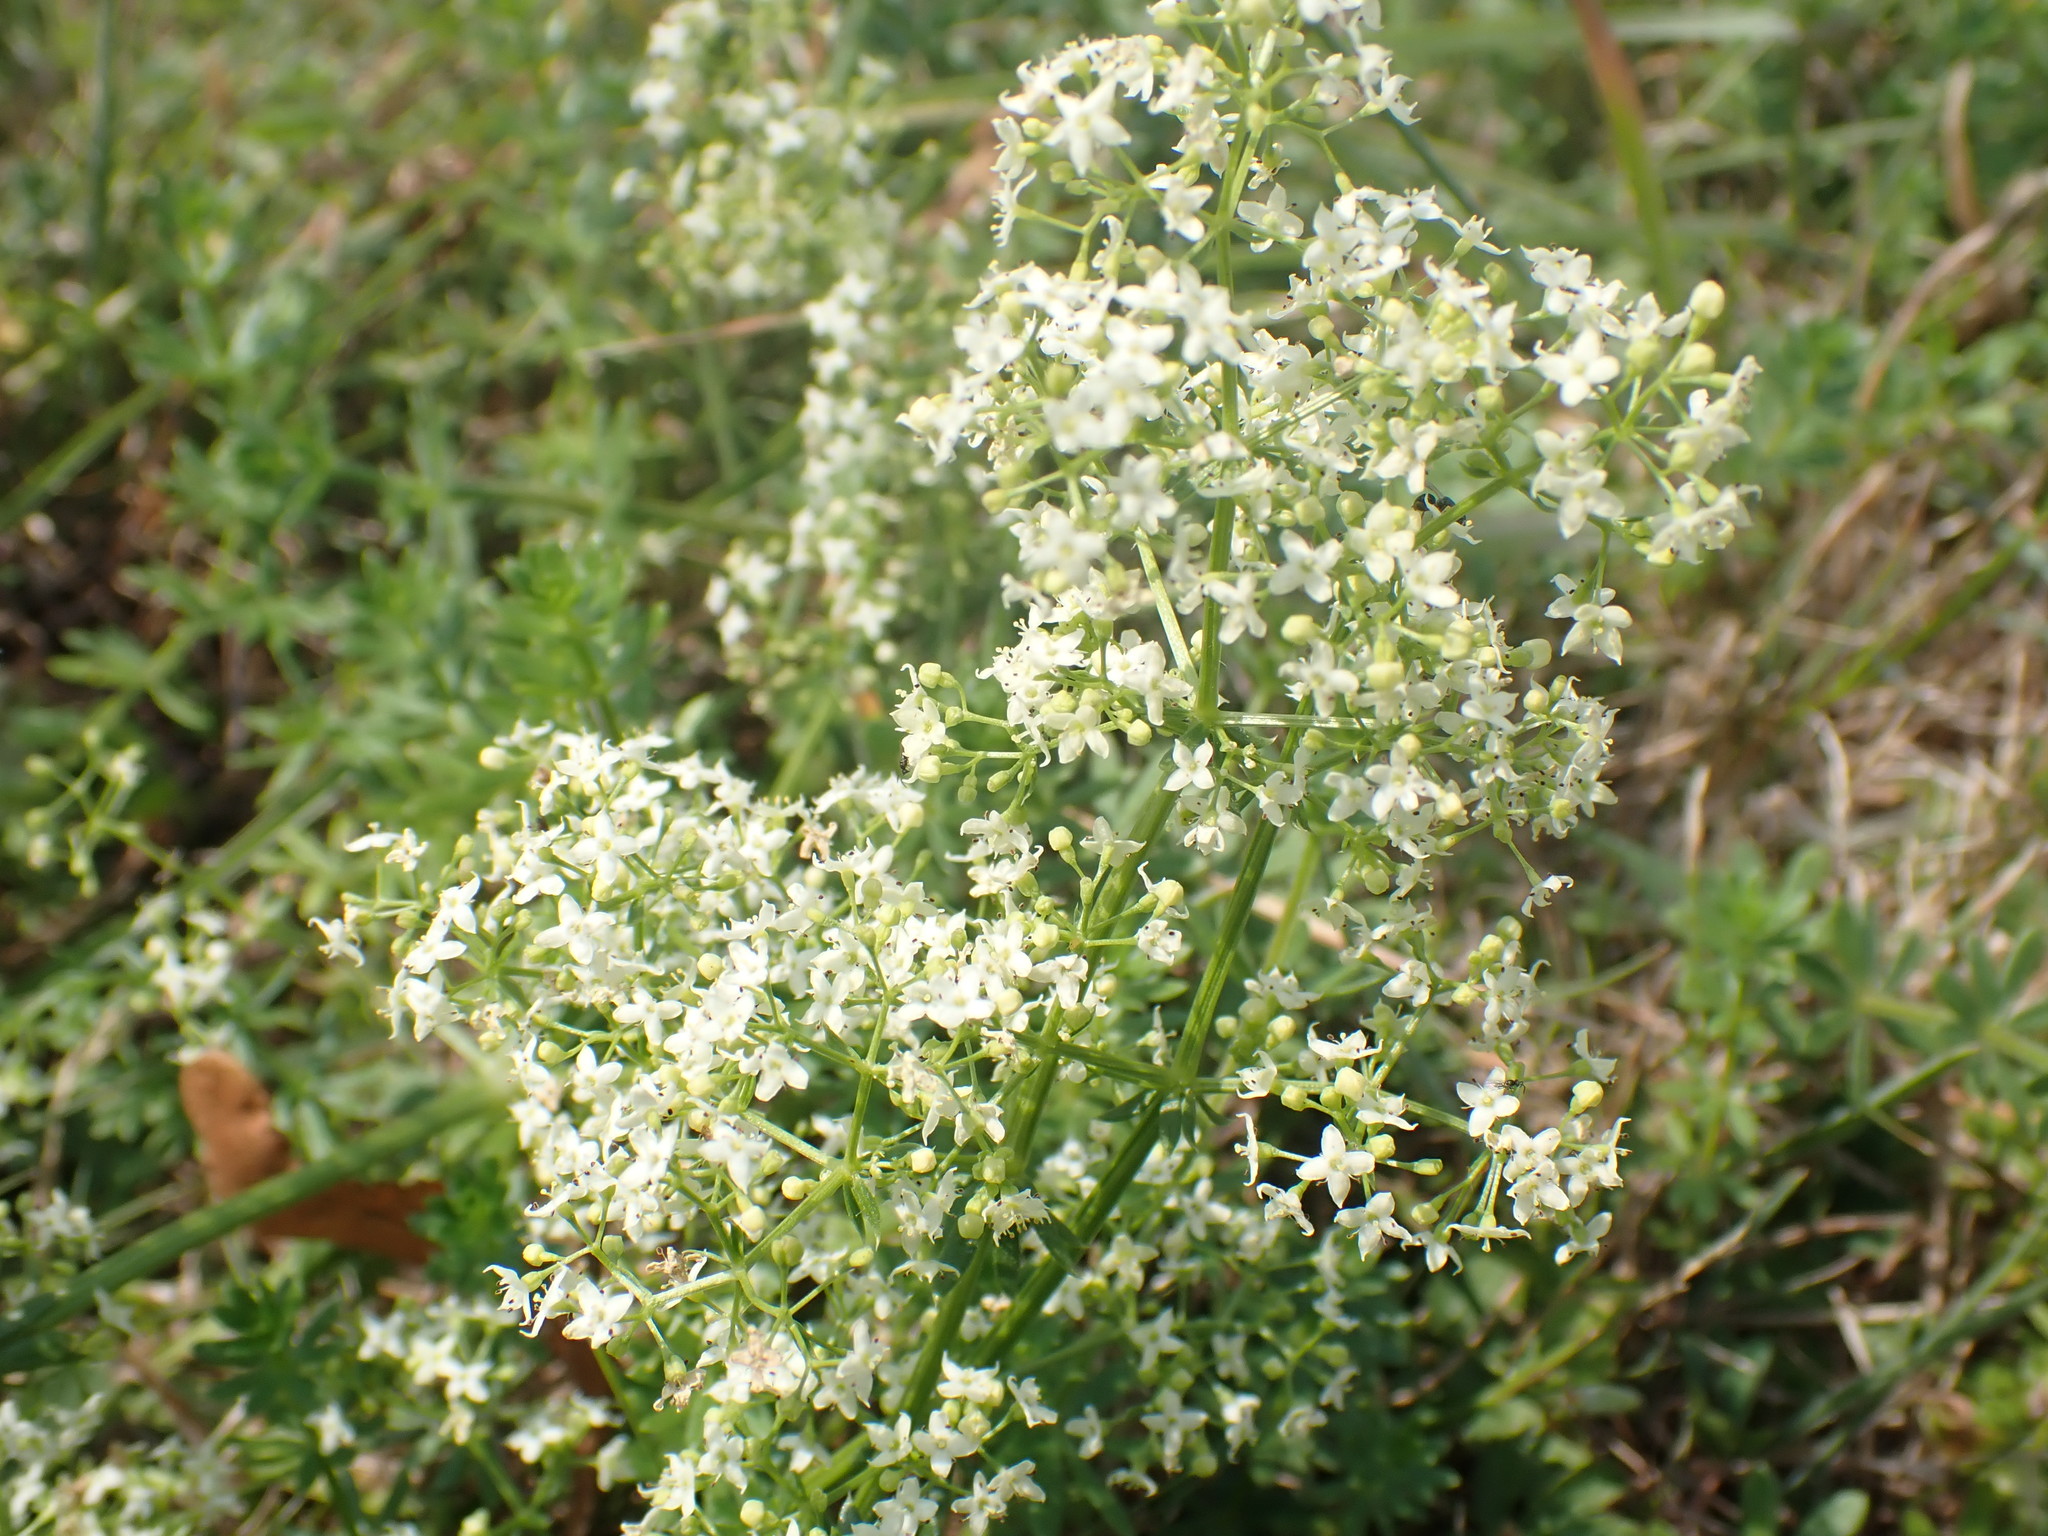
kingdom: Plantae
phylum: Tracheophyta
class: Magnoliopsida
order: Gentianales
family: Rubiaceae
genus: Galium
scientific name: Galium album
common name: White bedstraw
